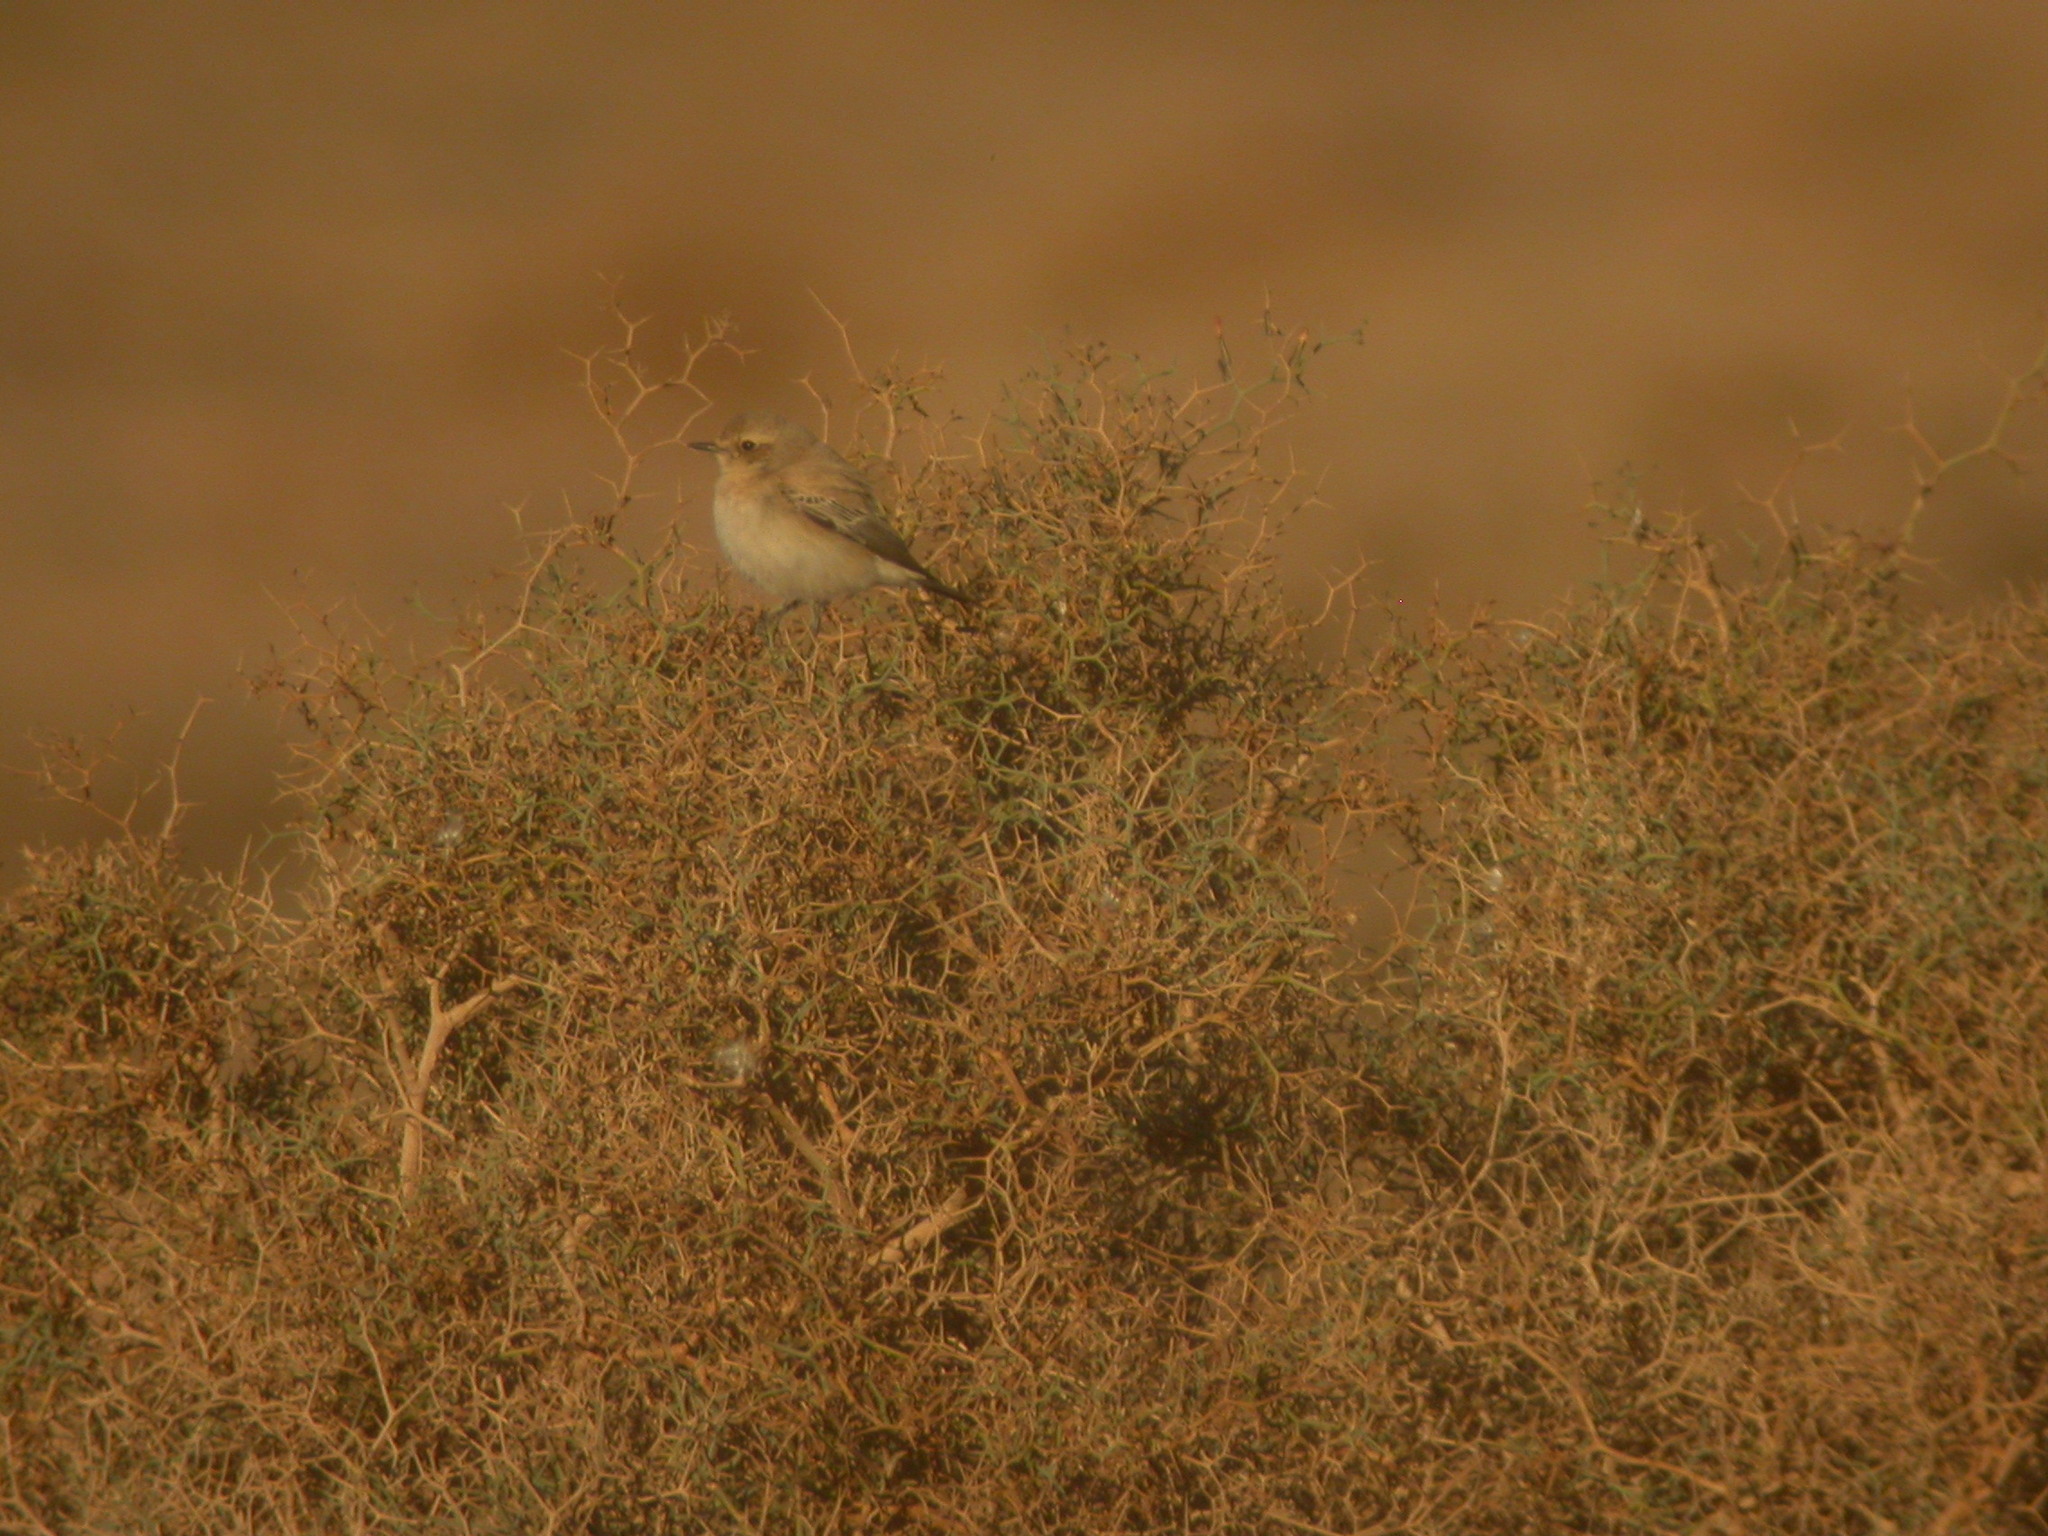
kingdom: Animalia
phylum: Chordata
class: Aves
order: Passeriformes
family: Muscicapidae
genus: Oenanthe
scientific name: Oenanthe deserti
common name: Desert wheatear
